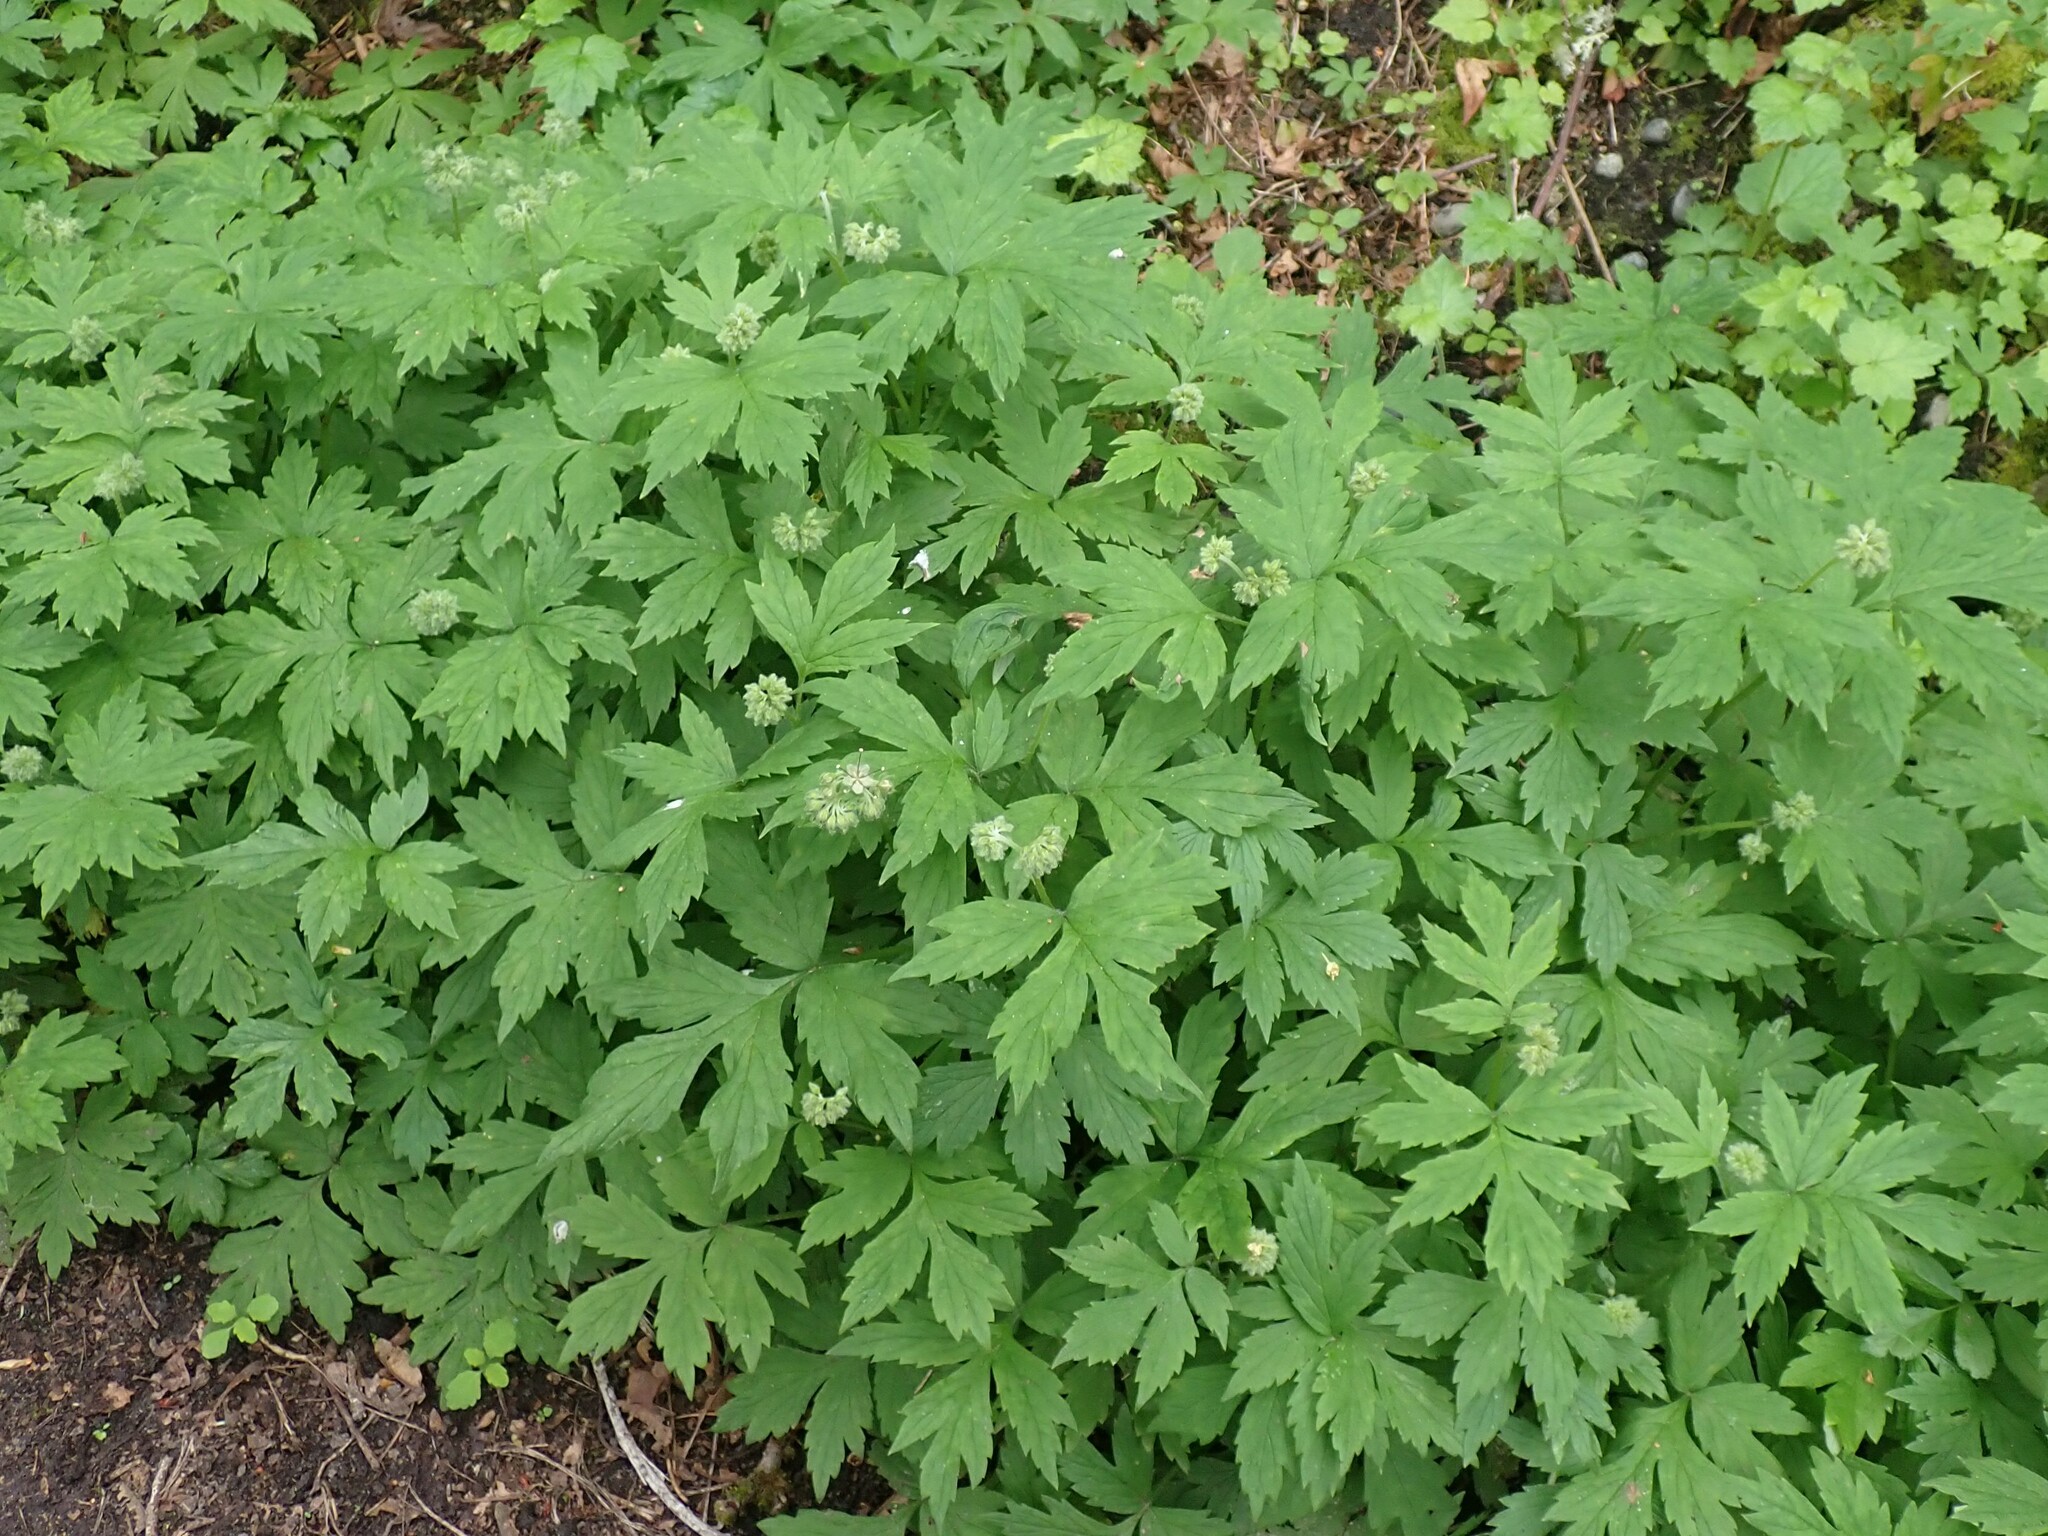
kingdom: Plantae
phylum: Tracheophyta
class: Magnoliopsida
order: Boraginales
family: Hydrophyllaceae
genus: Hydrophyllum
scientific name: Hydrophyllum tenuipes
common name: Pacific waterleaf
